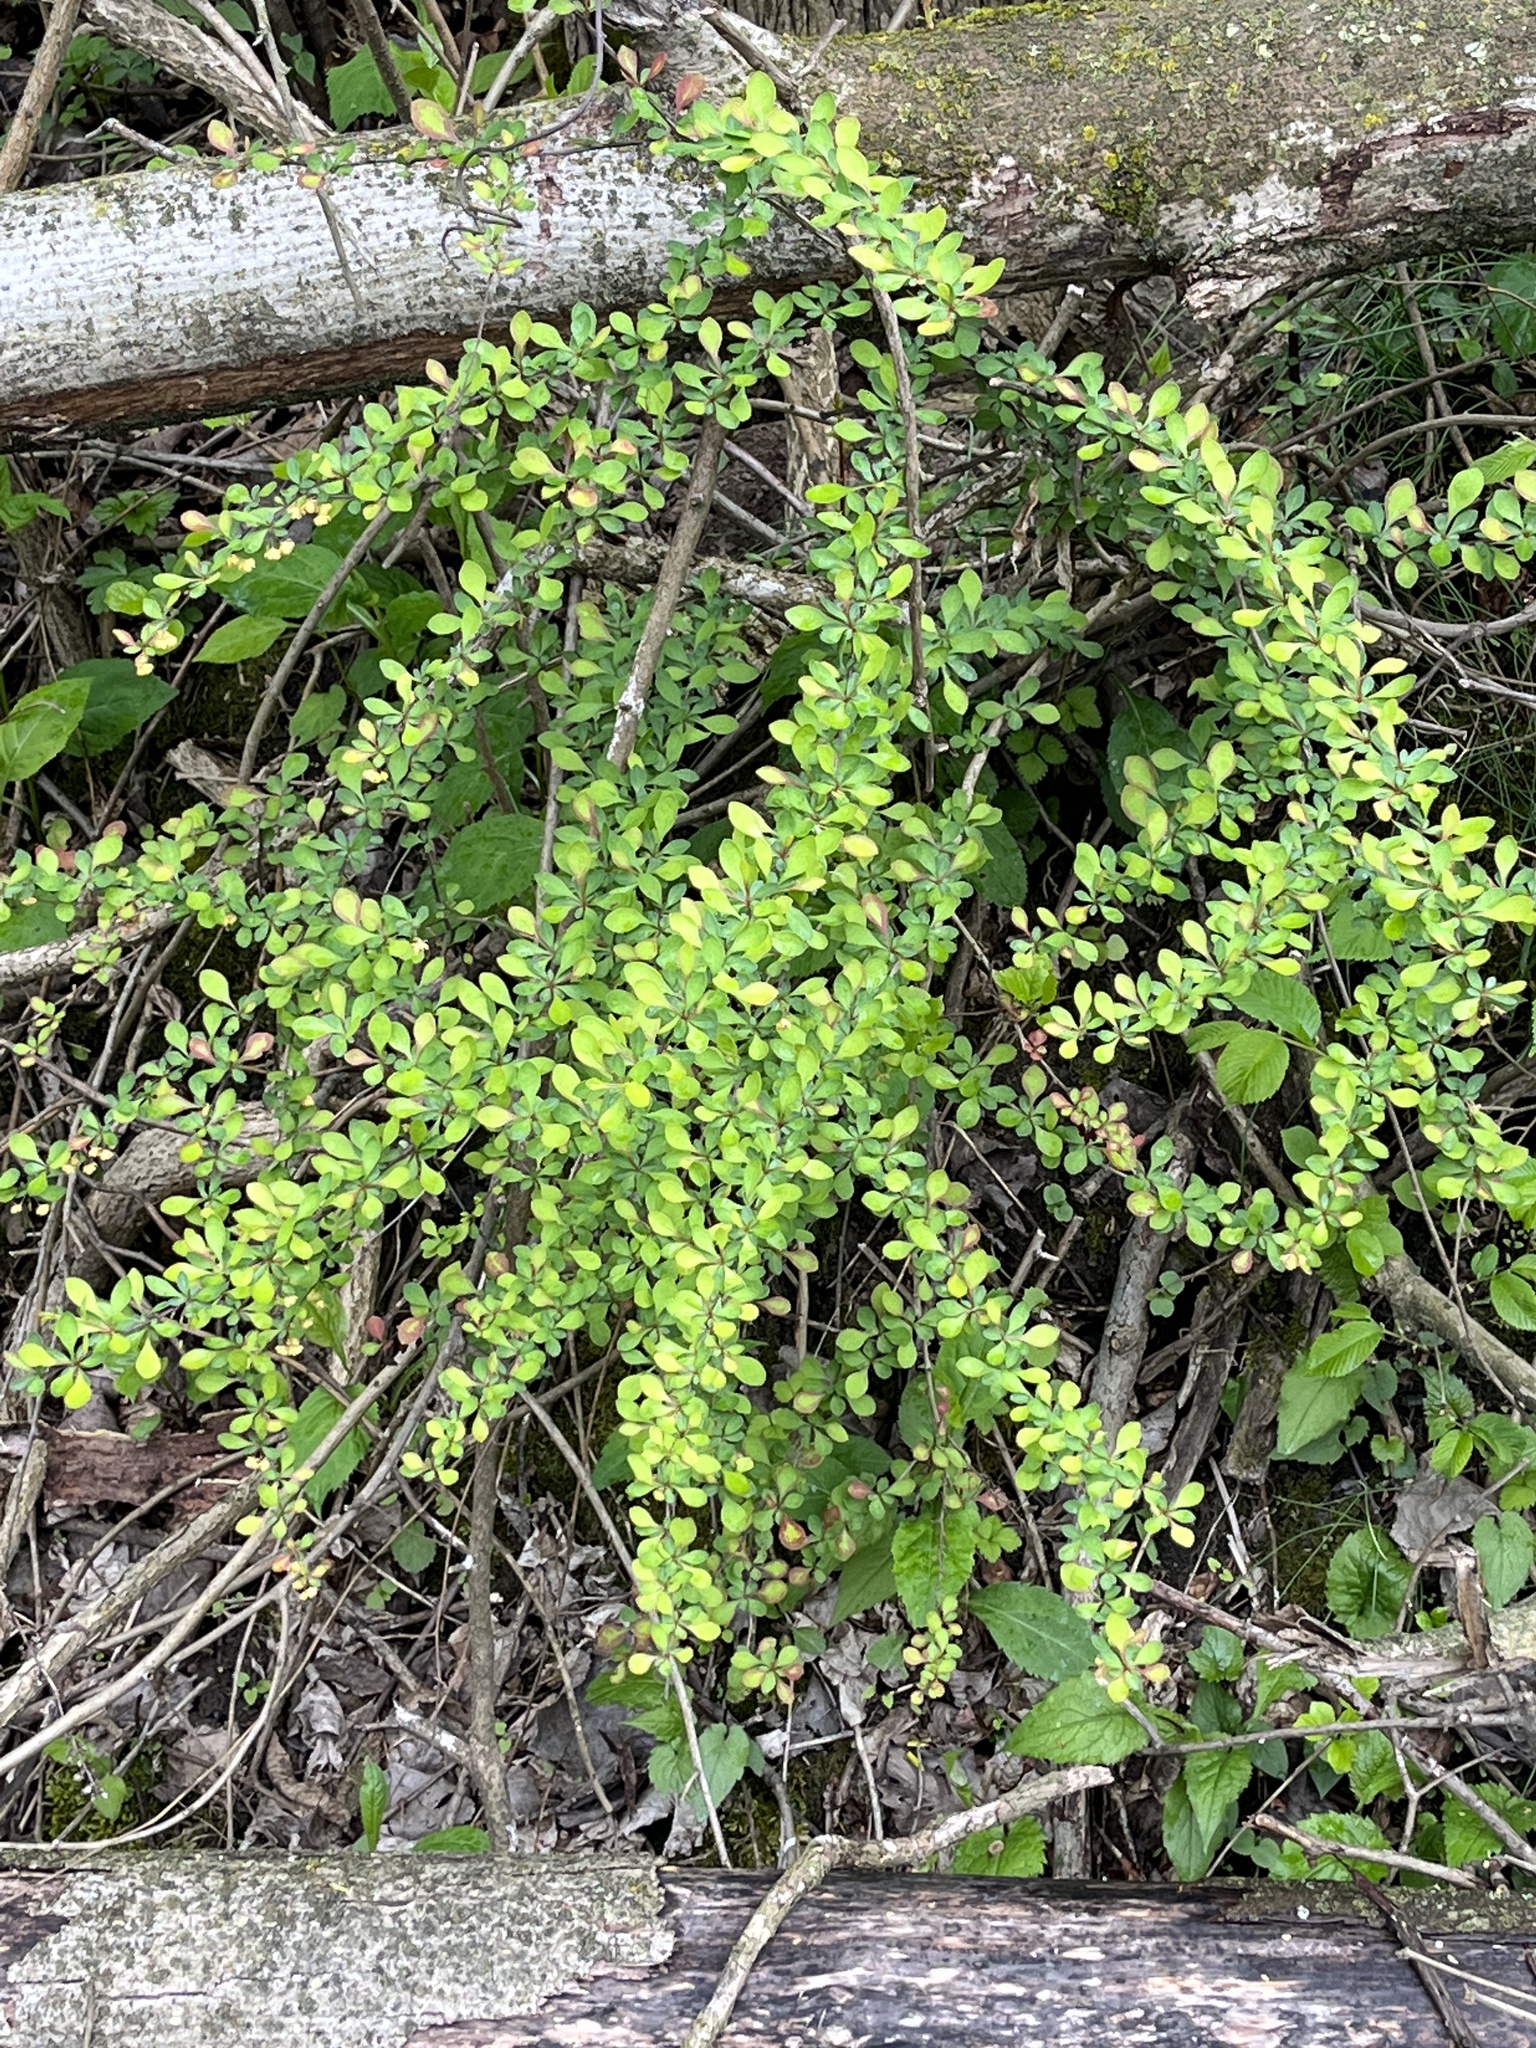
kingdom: Plantae
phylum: Tracheophyta
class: Magnoliopsida
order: Ranunculales
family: Berberidaceae
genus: Berberis
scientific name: Berberis thunbergii
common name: Japanese barberry
